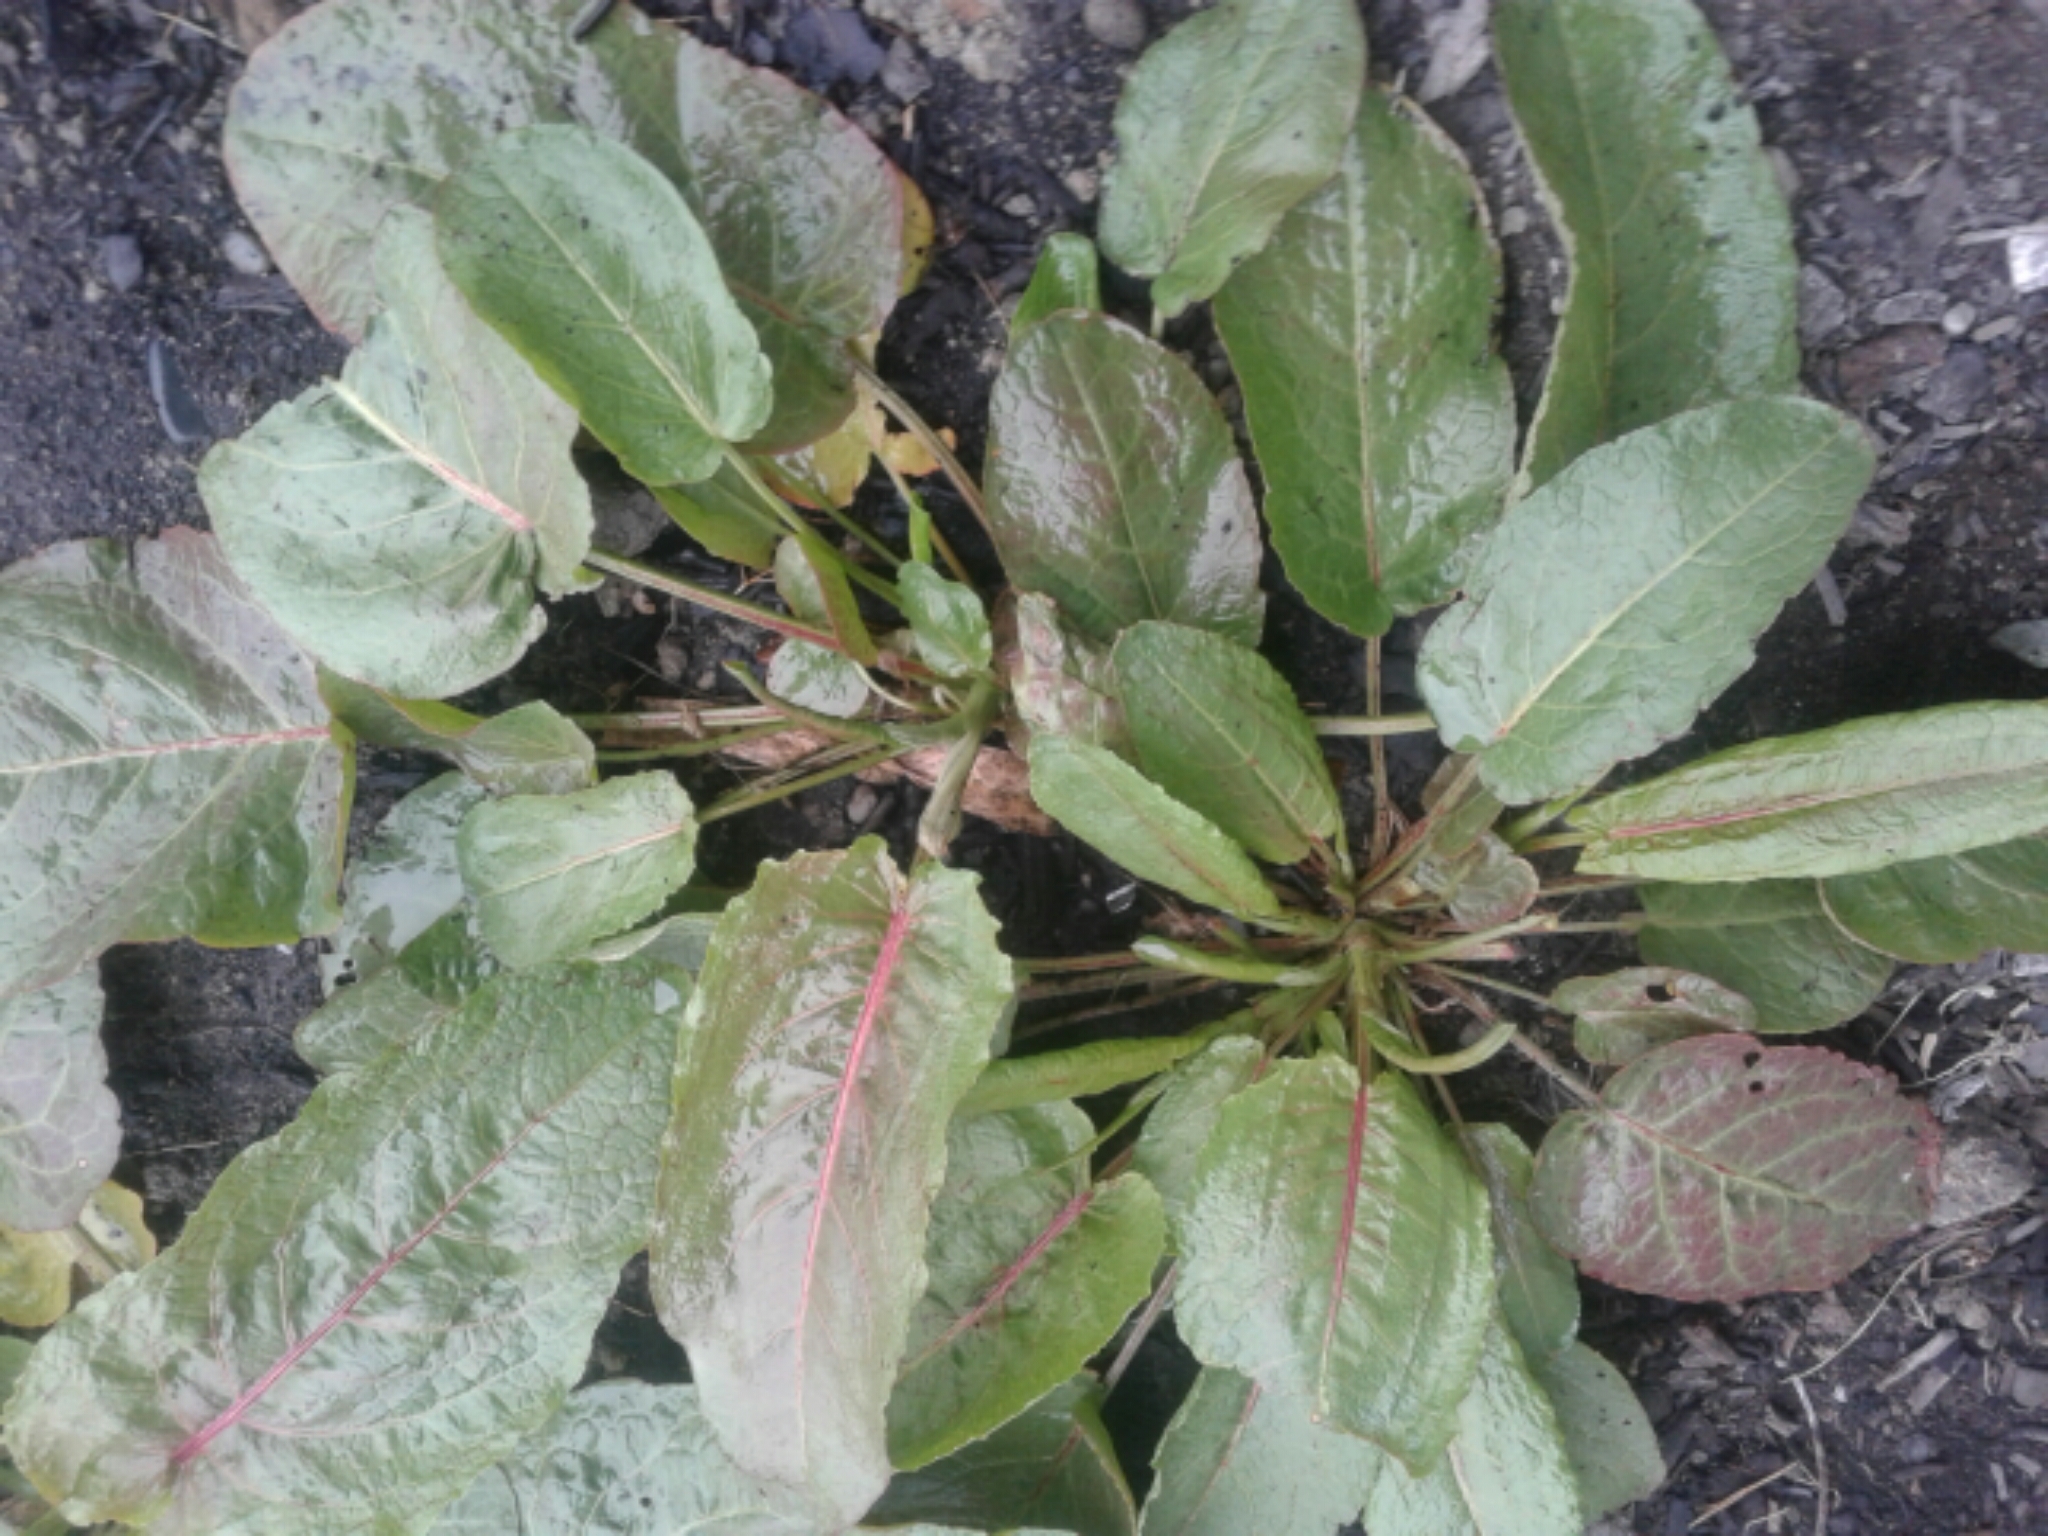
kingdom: Plantae
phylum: Tracheophyta
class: Magnoliopsida
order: Caryophyllales
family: Polygonaceae
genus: Rumex
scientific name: Rumex obtusifolius
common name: Bitter dock
